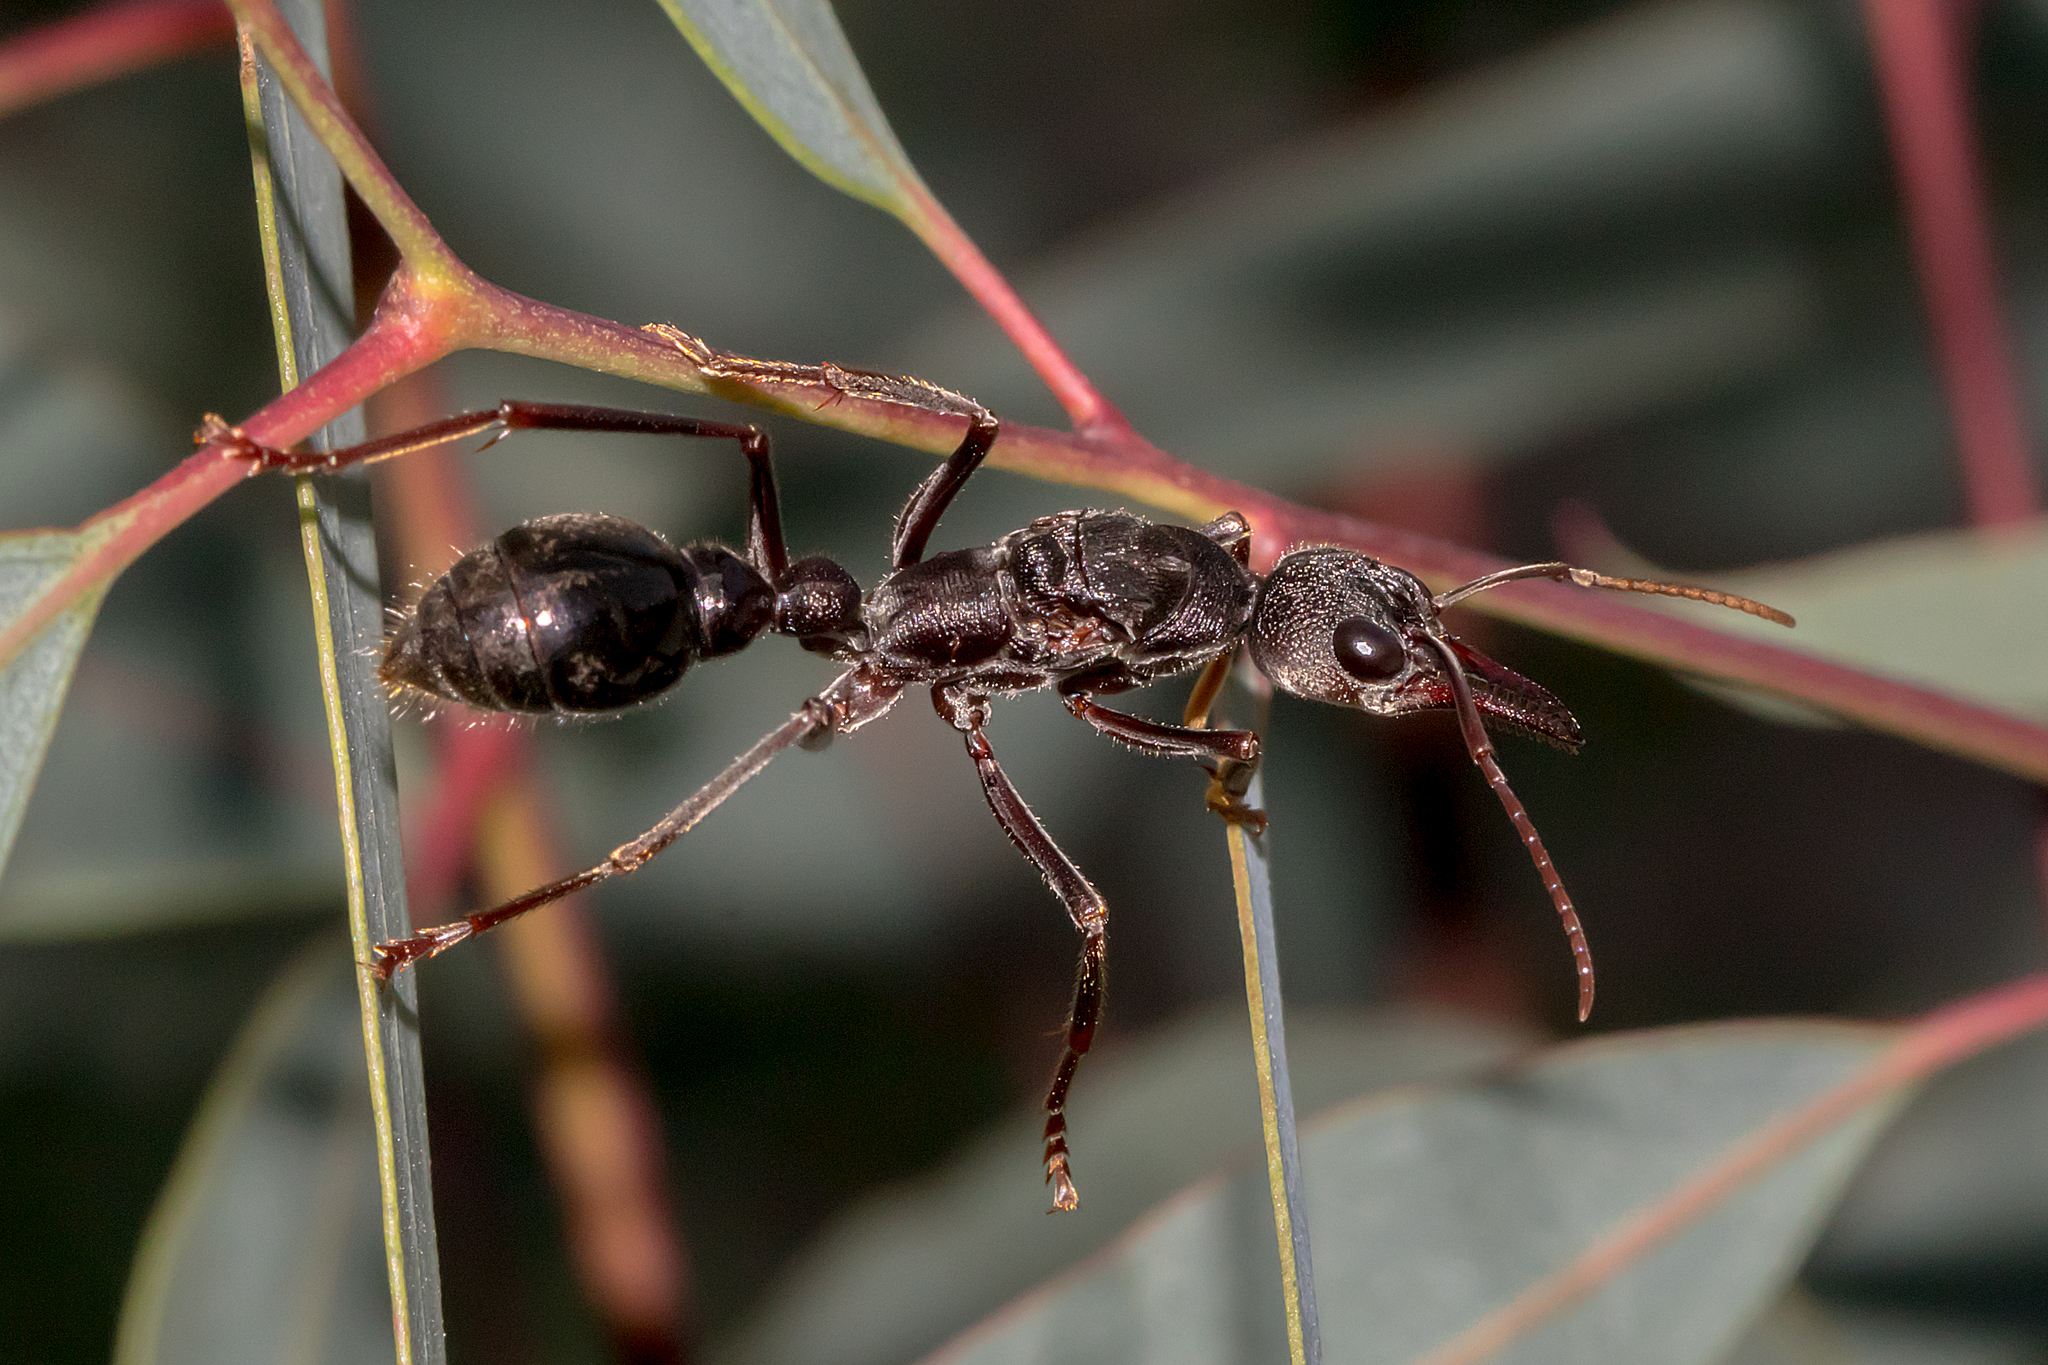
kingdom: Animalia
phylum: Arthropoda
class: Insecta
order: Hymenoptera
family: Formicidae
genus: Myrmecia
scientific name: Myrmecia pyriformis
